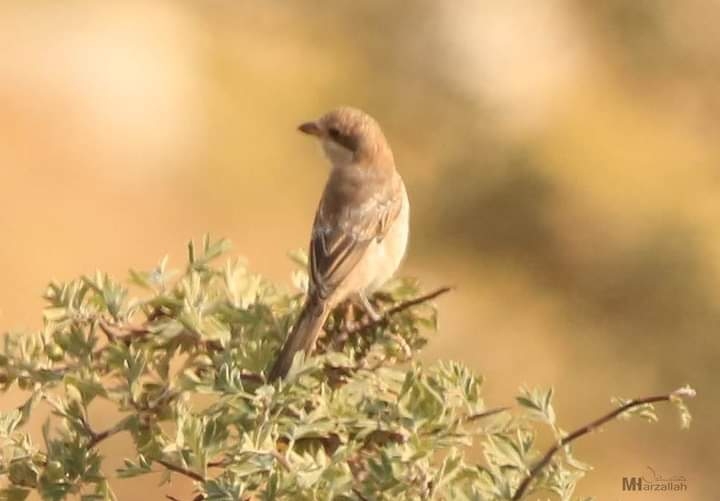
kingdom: Animalia
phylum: Chordata
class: Aves
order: Passeriformes
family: Laniidae
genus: Lanius
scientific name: Lanius senator
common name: Woodchat shrike
